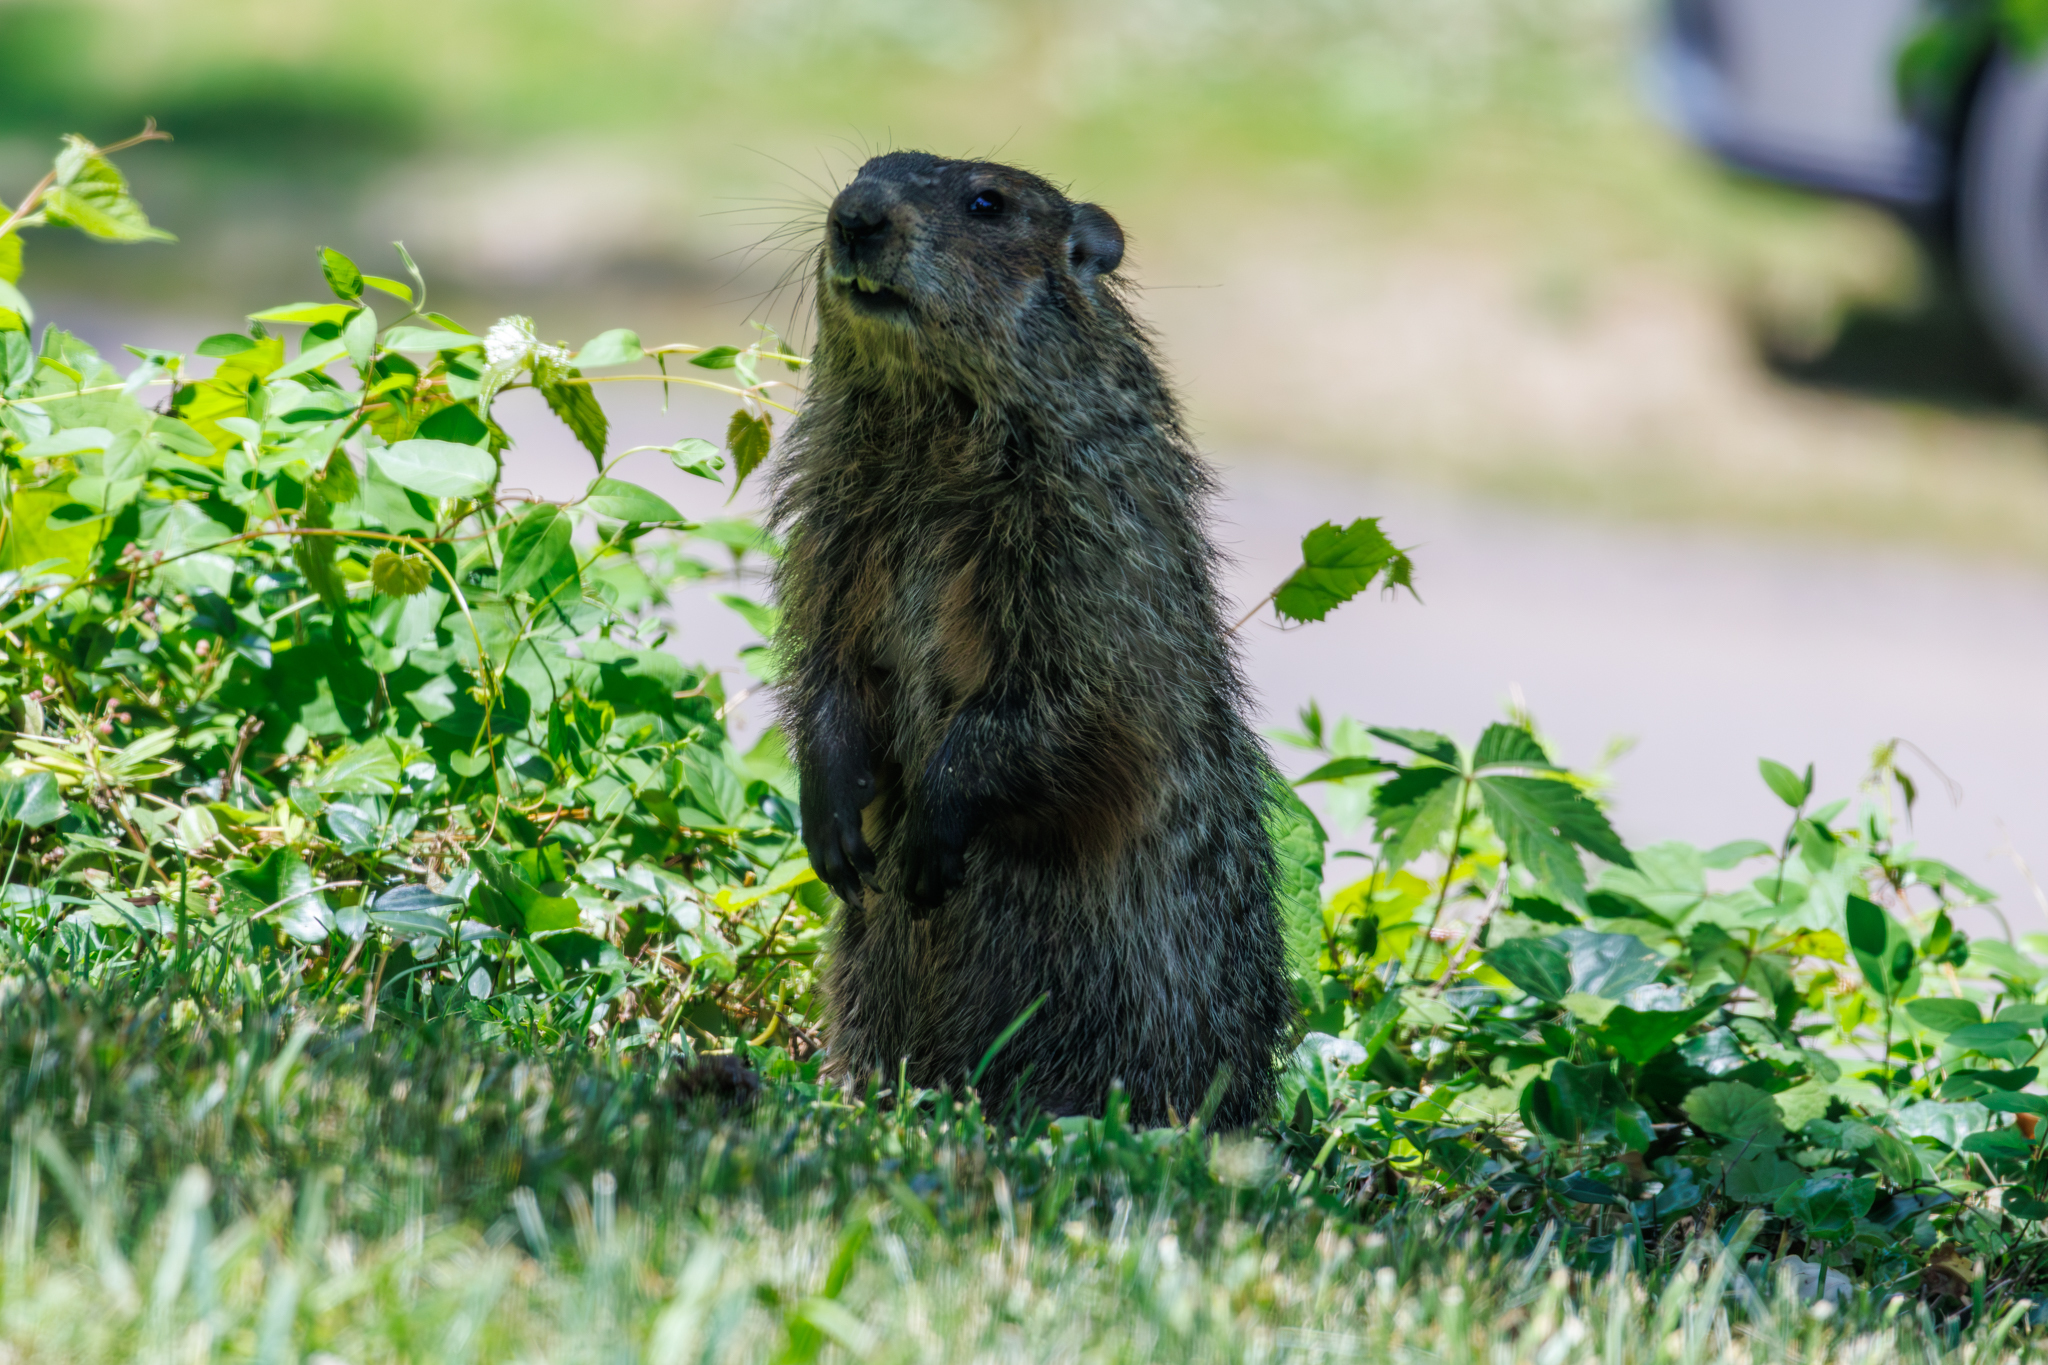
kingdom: Animalia
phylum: Chordata
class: Mammalia
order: Rodentia
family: Sciuridae
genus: Marmota
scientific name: Marmota monax
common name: Groundhog
